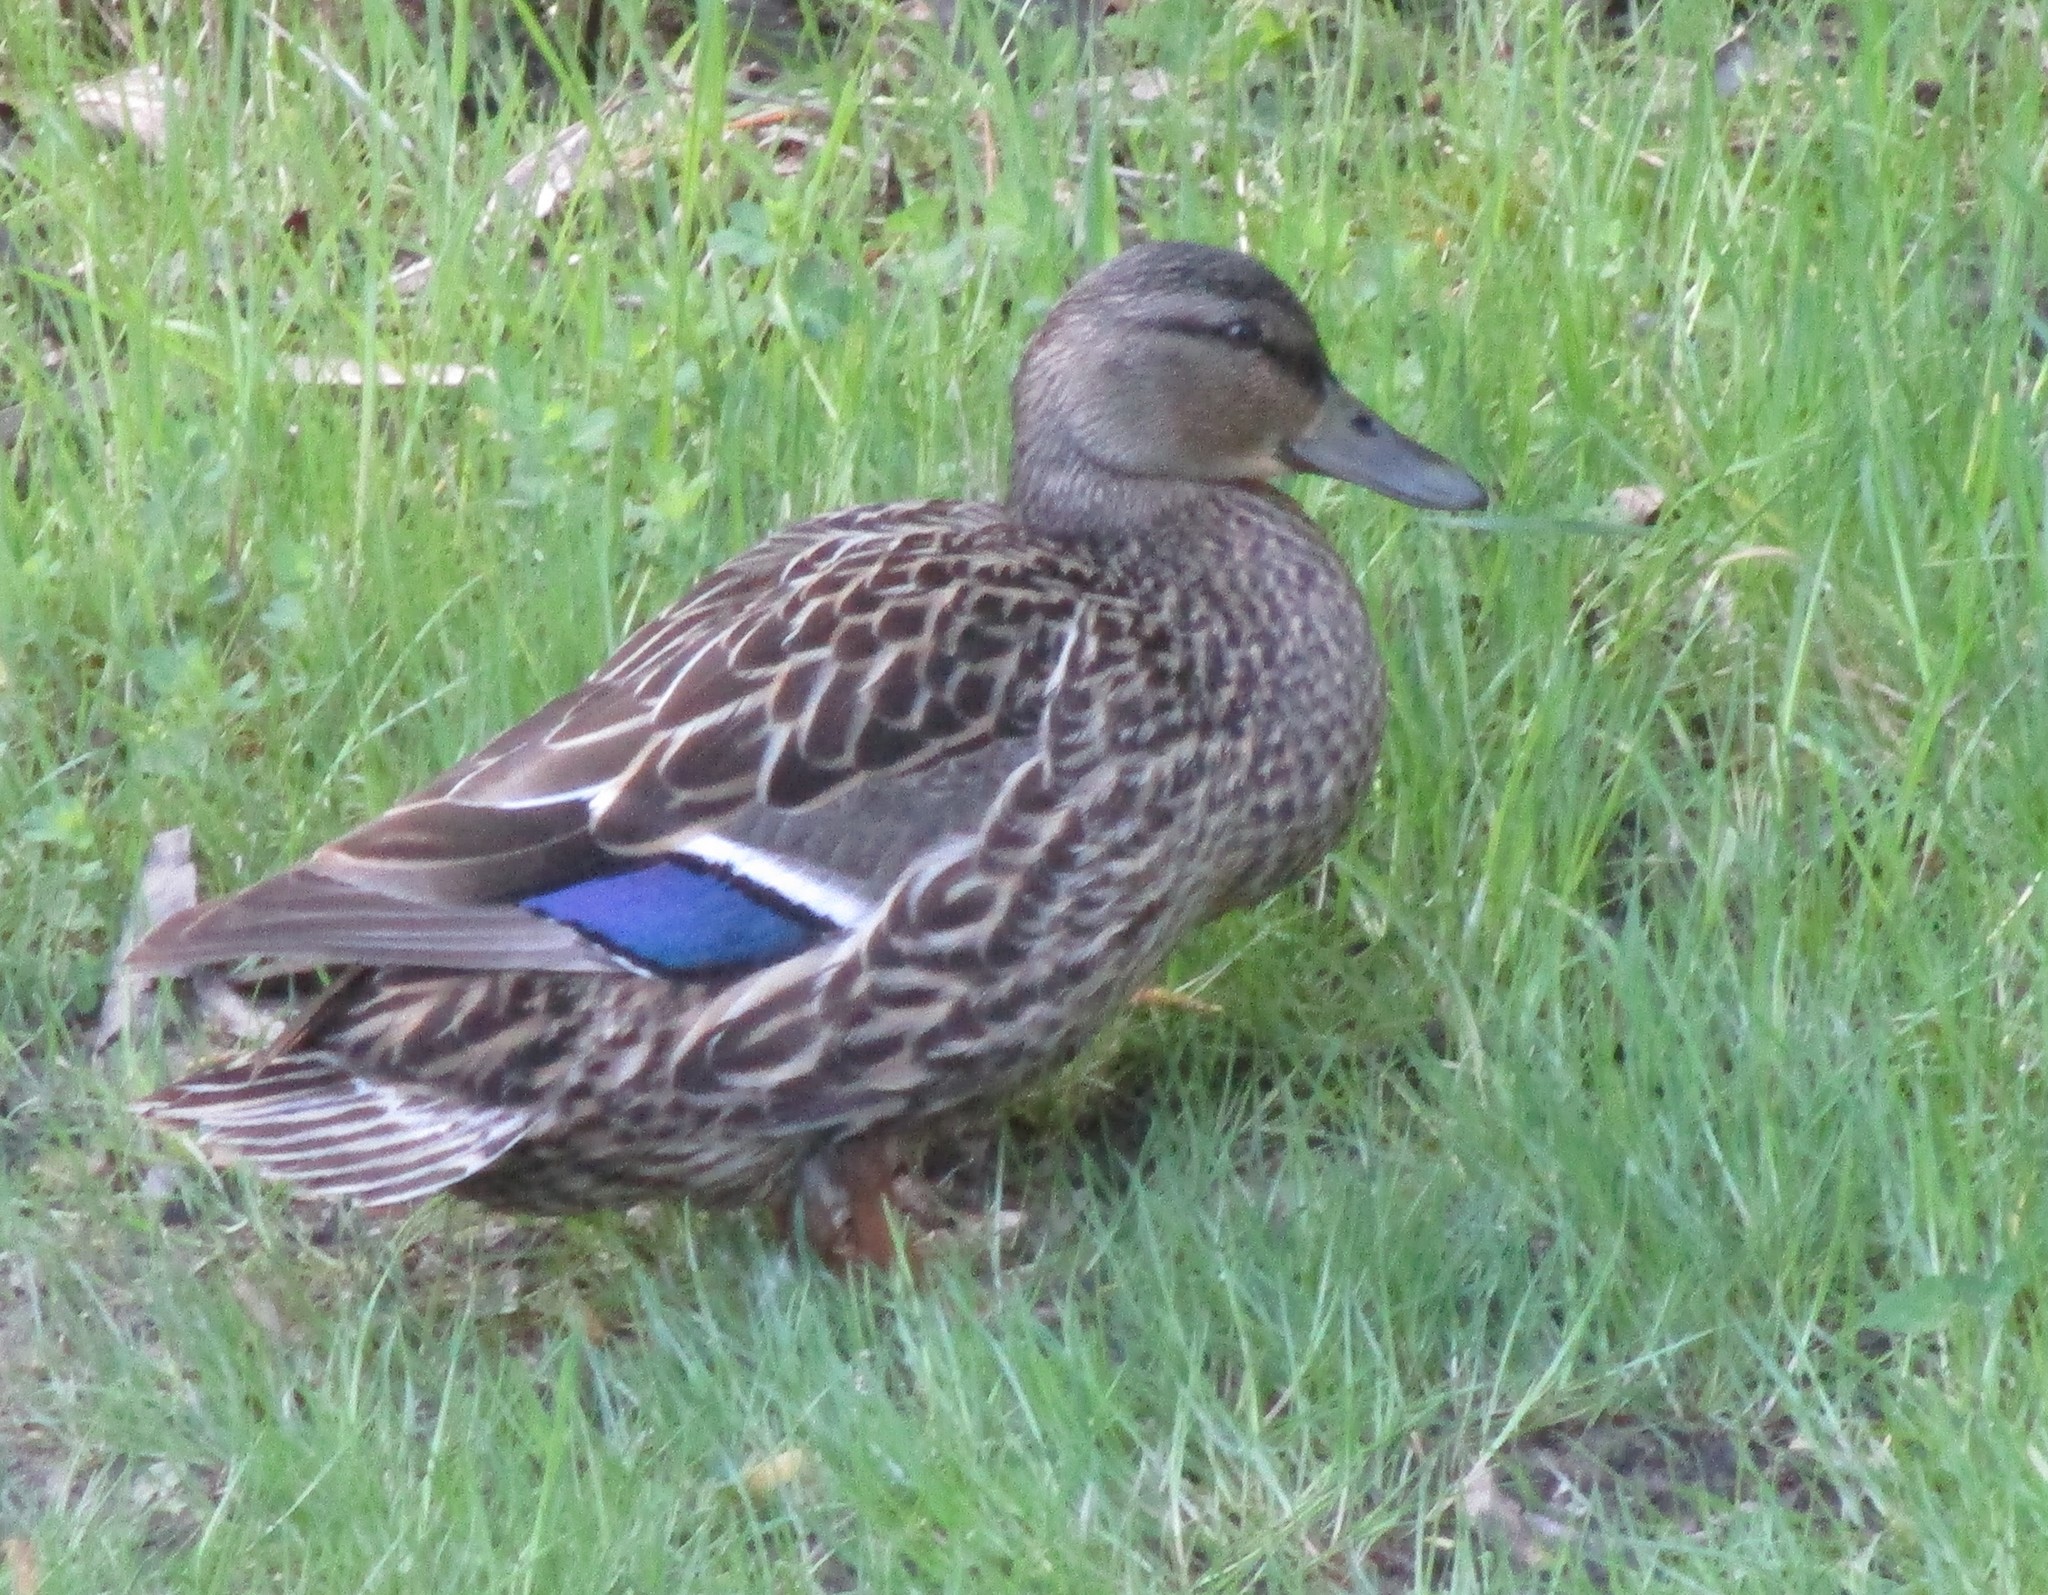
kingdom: Animalia
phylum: Chordata
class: Aves
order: Anseriformes
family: Anatidae
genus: Anas
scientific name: Anas platyrhynchos
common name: Mallard
